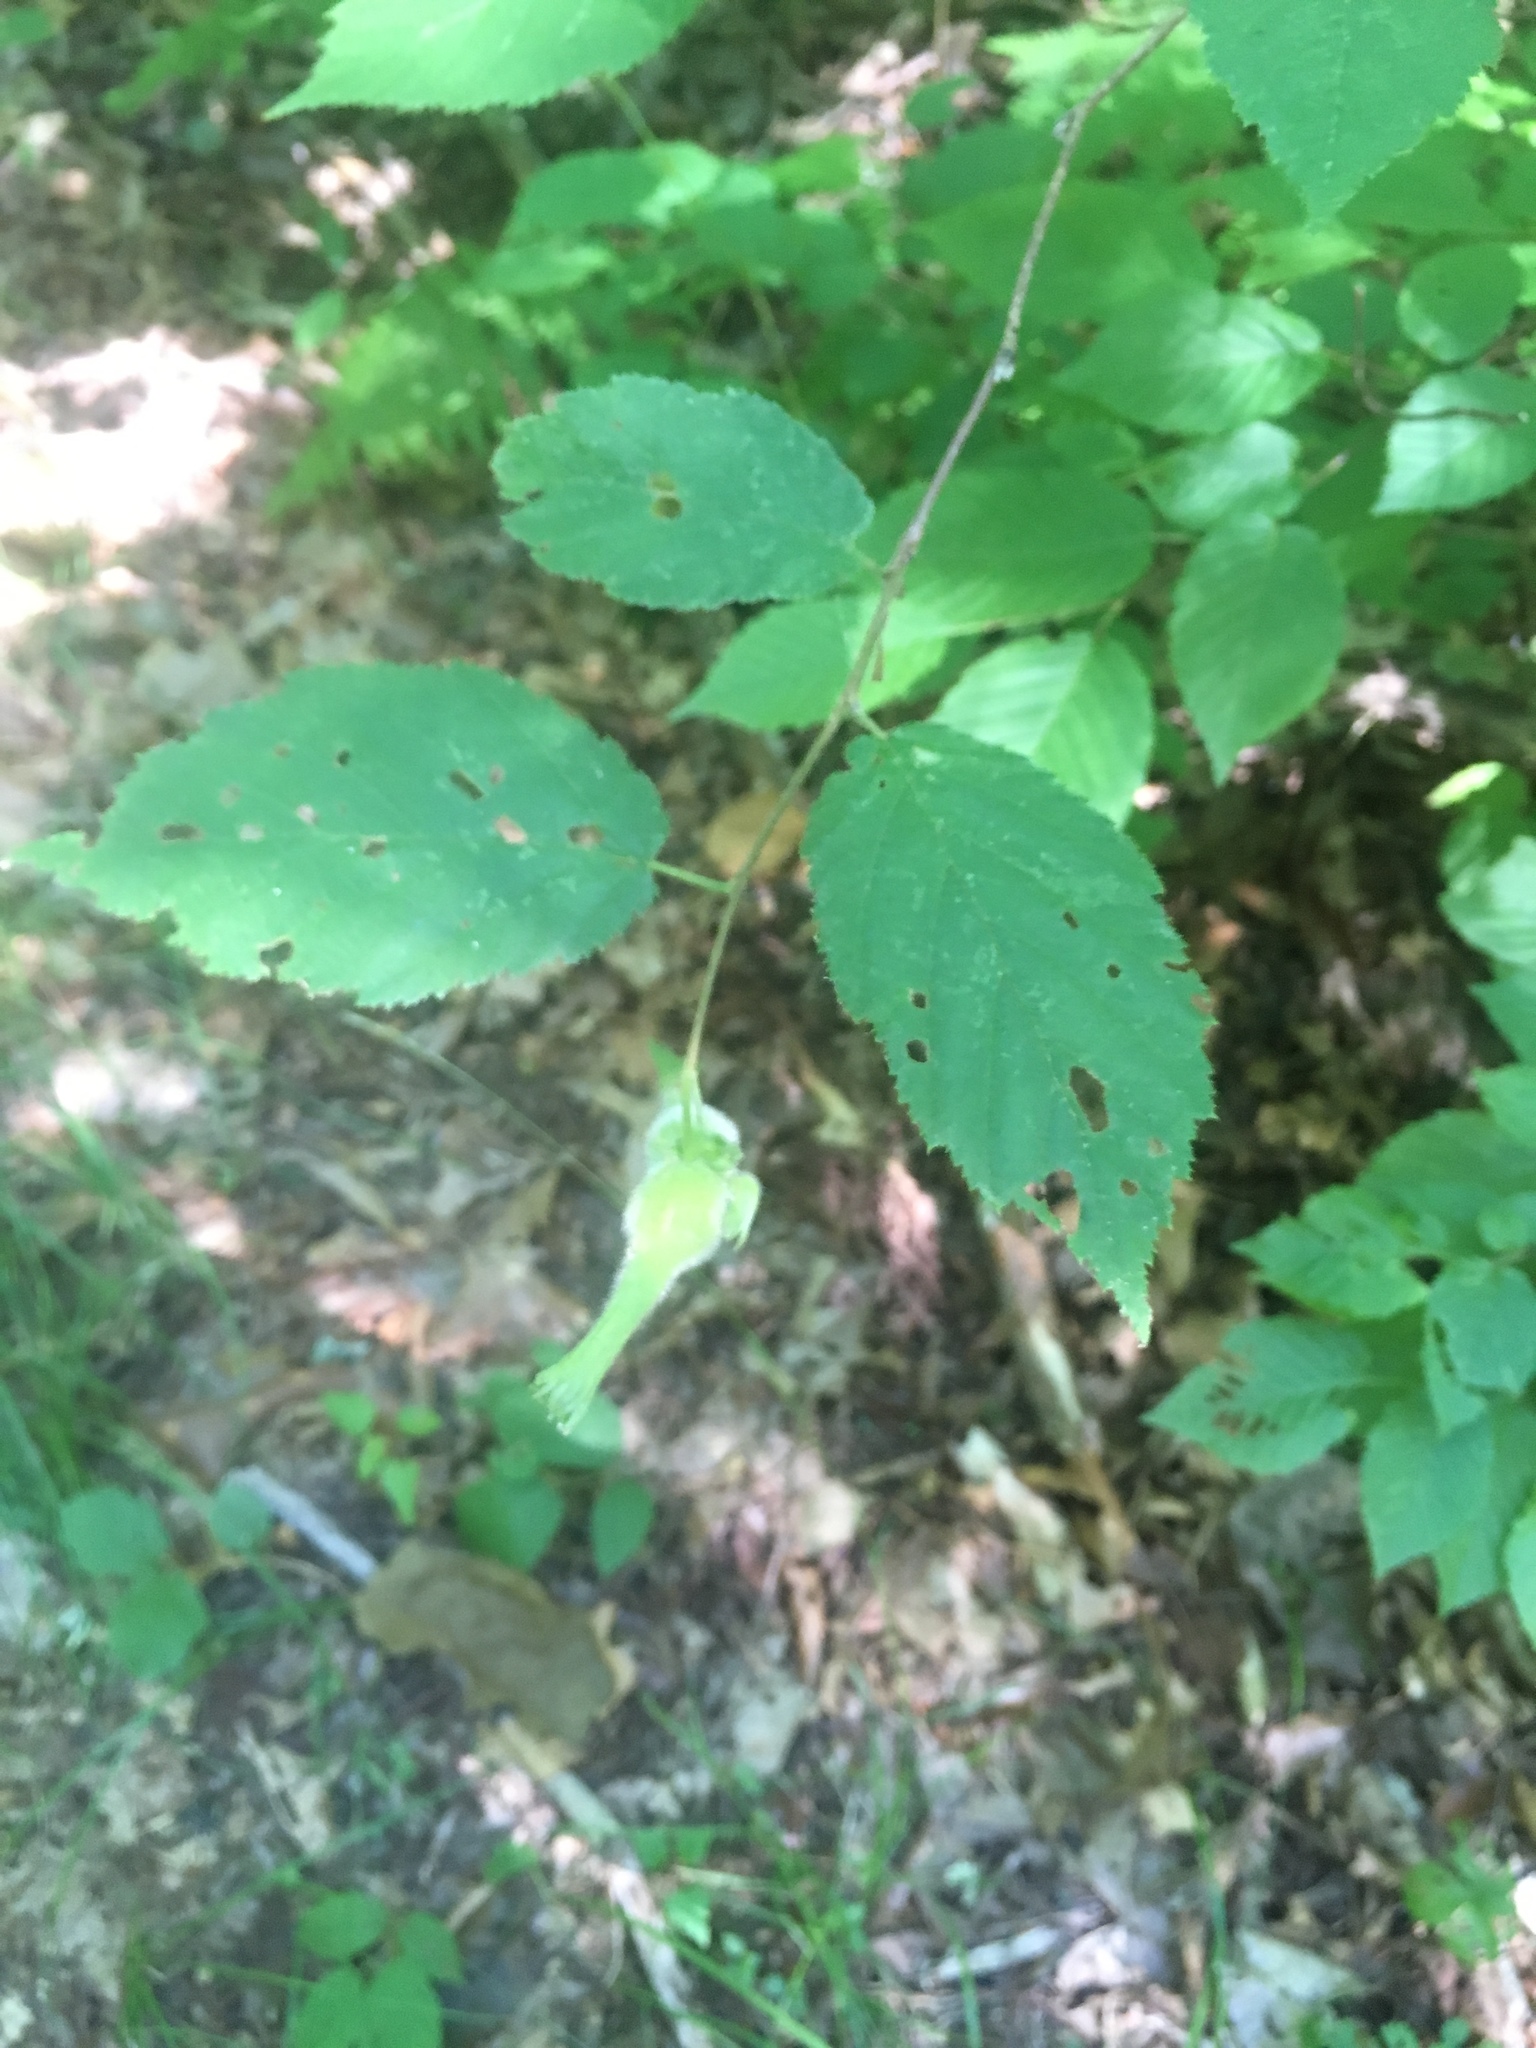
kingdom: Plantae
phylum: Tracheophyta
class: Magnoliopsida
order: Fagales
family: Betulaceae
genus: Corylus
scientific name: Corylus cornuta
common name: Beaked hazel
